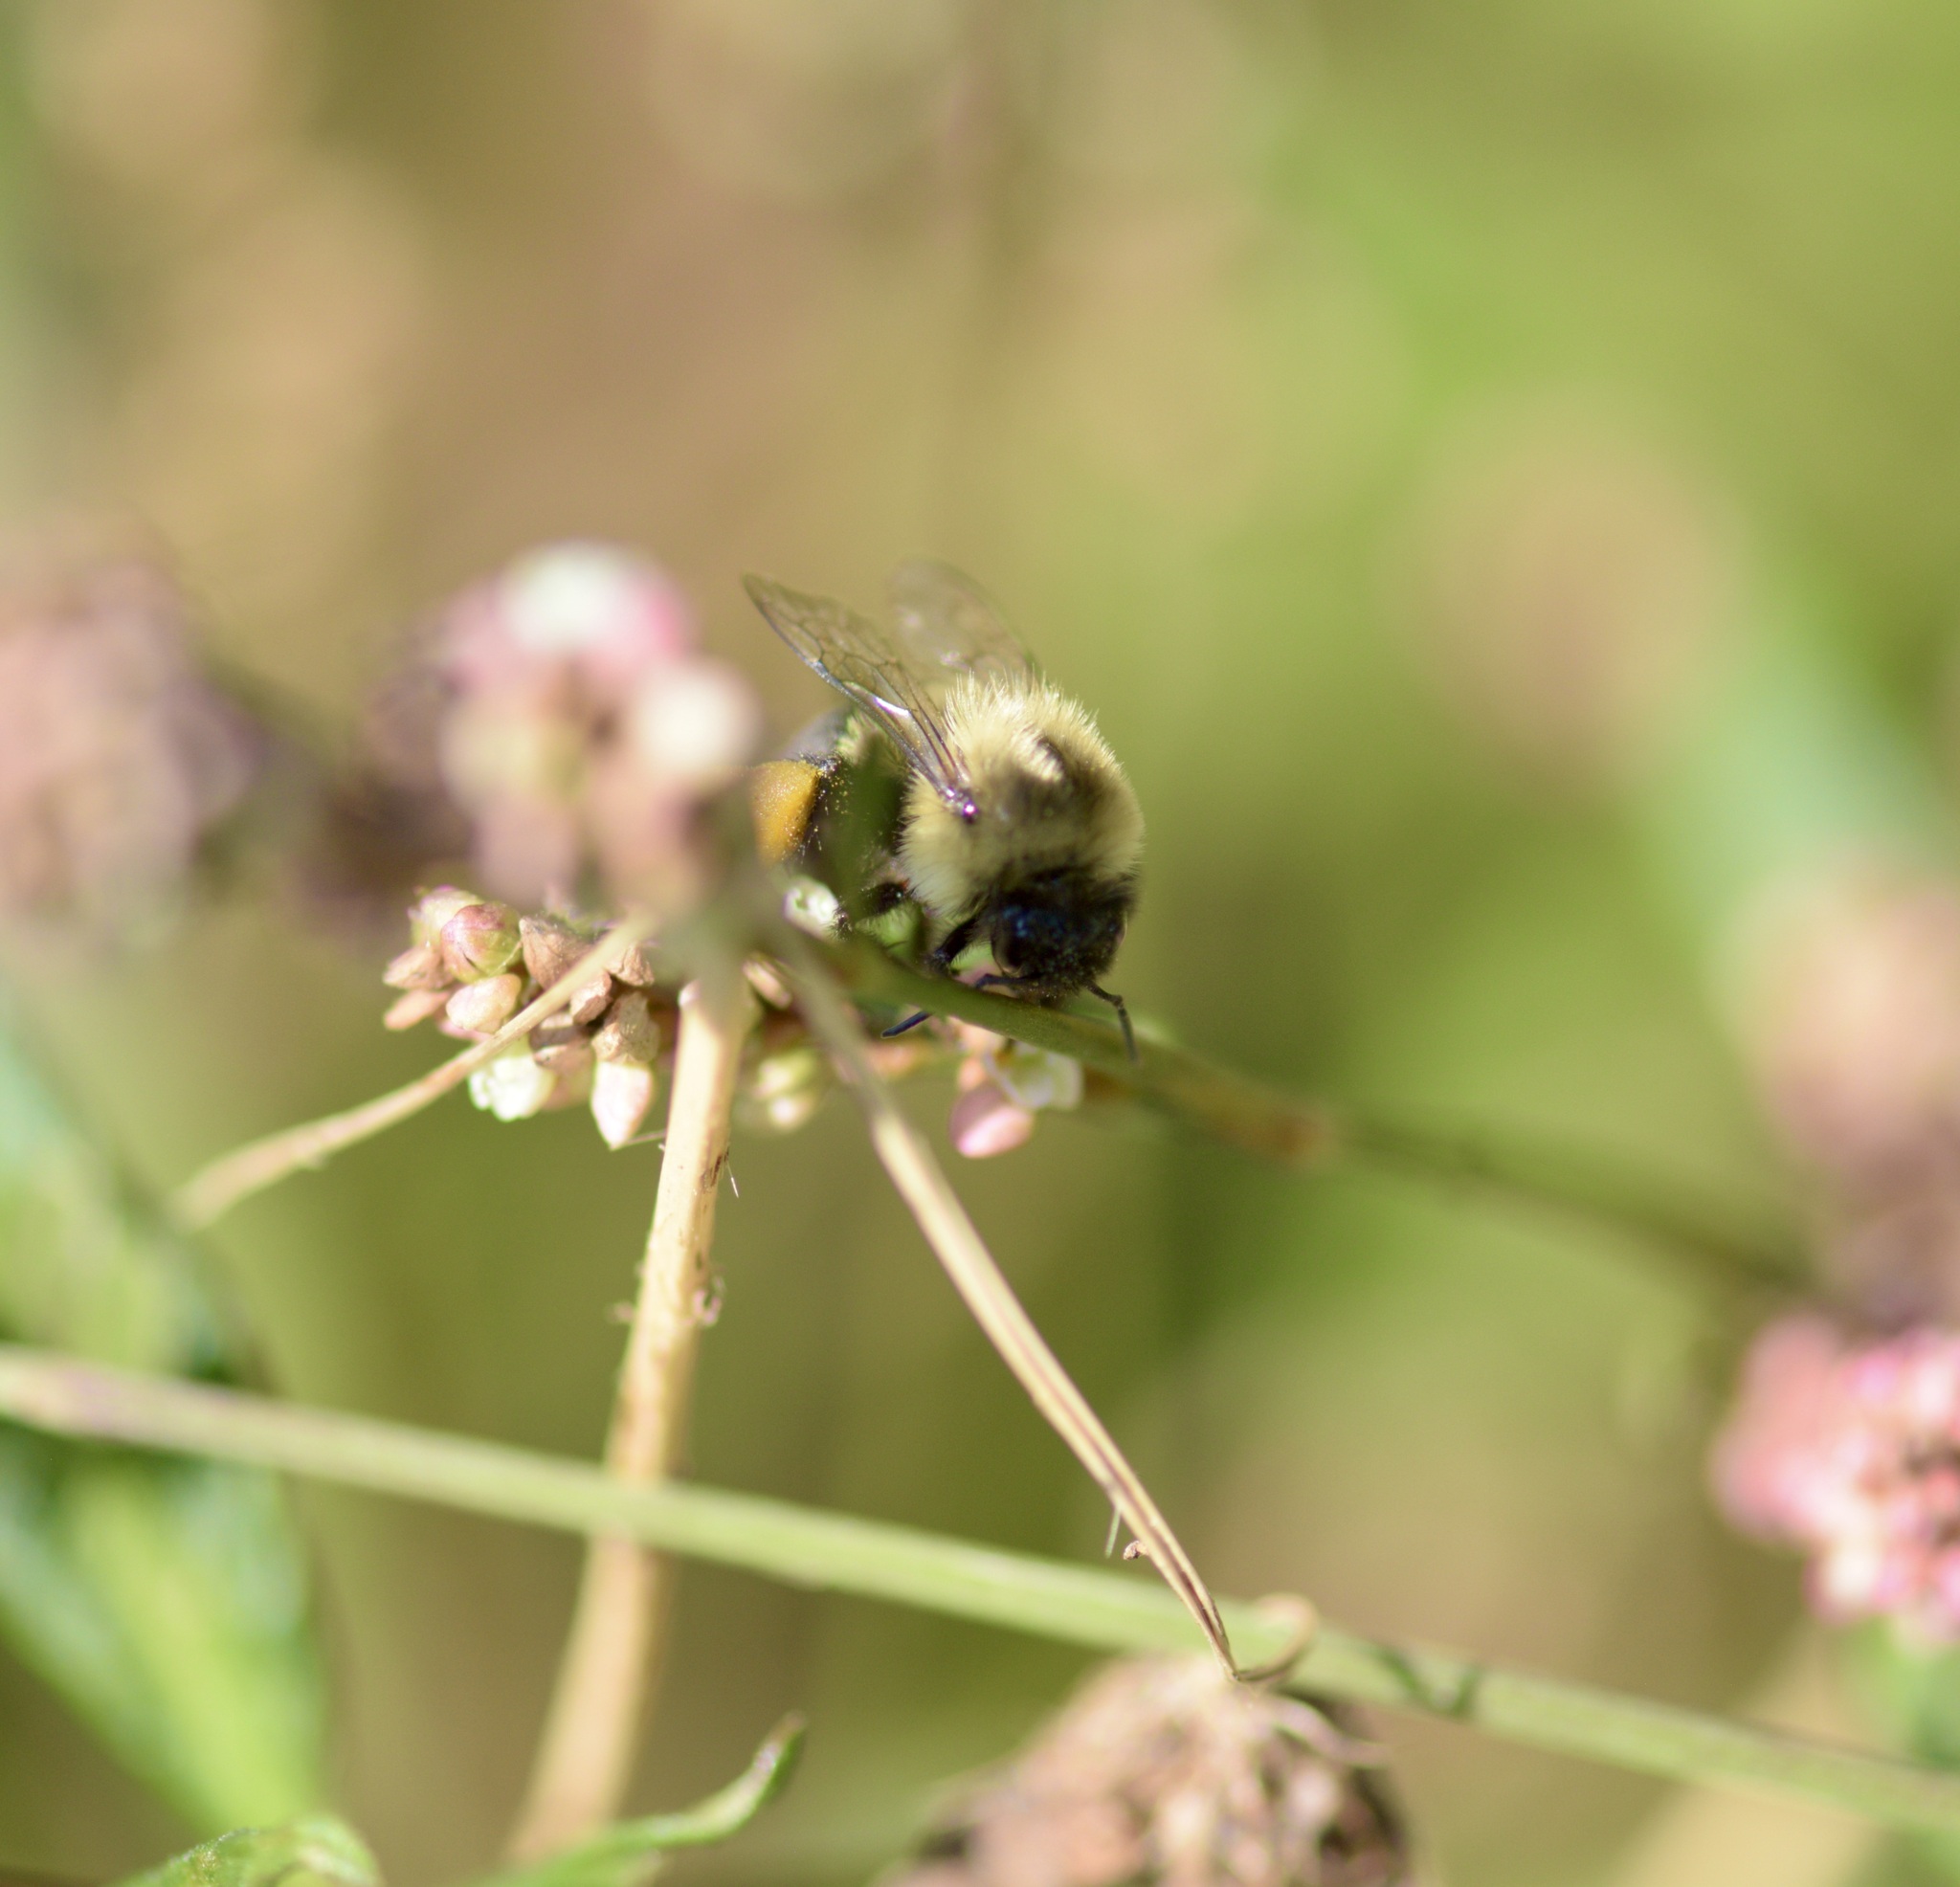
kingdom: Animalia
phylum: Arthropoda
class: Insecta
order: Hymenoptera
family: Apidae
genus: Bombus
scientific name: Bombus impatiens
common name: Common eastern bumble bee
